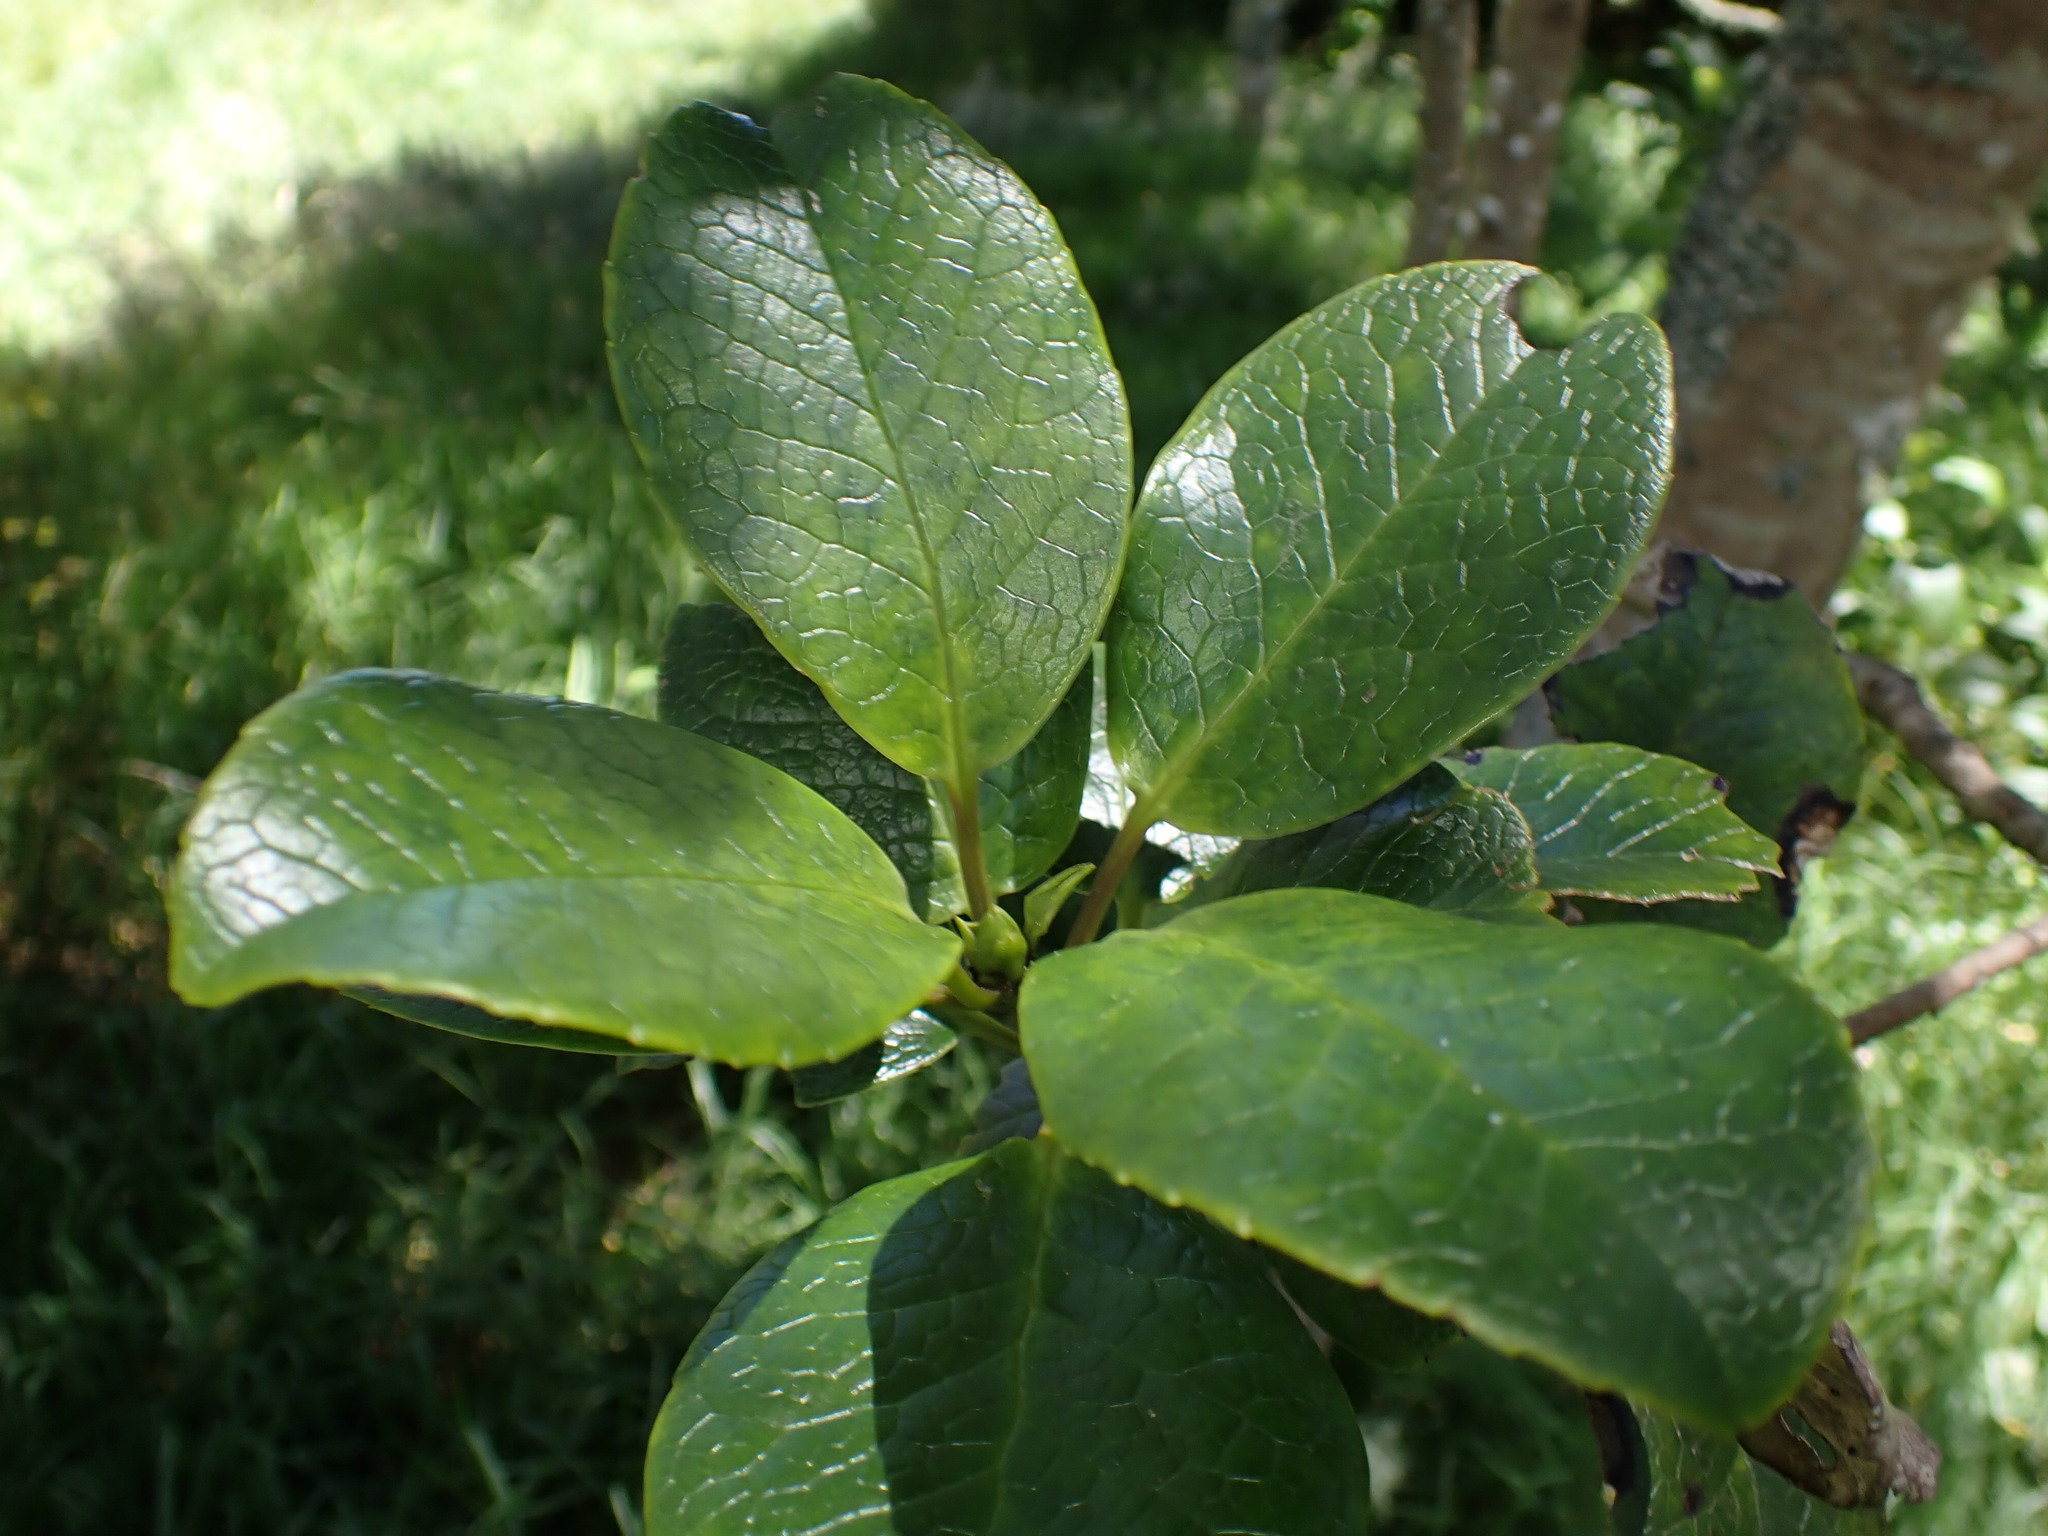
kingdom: Plantae
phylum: Tracheophyta
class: Magnoliopsida
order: Aquifoliales
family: Aquifoliaceae
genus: Ilex
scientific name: Ilex anomala
